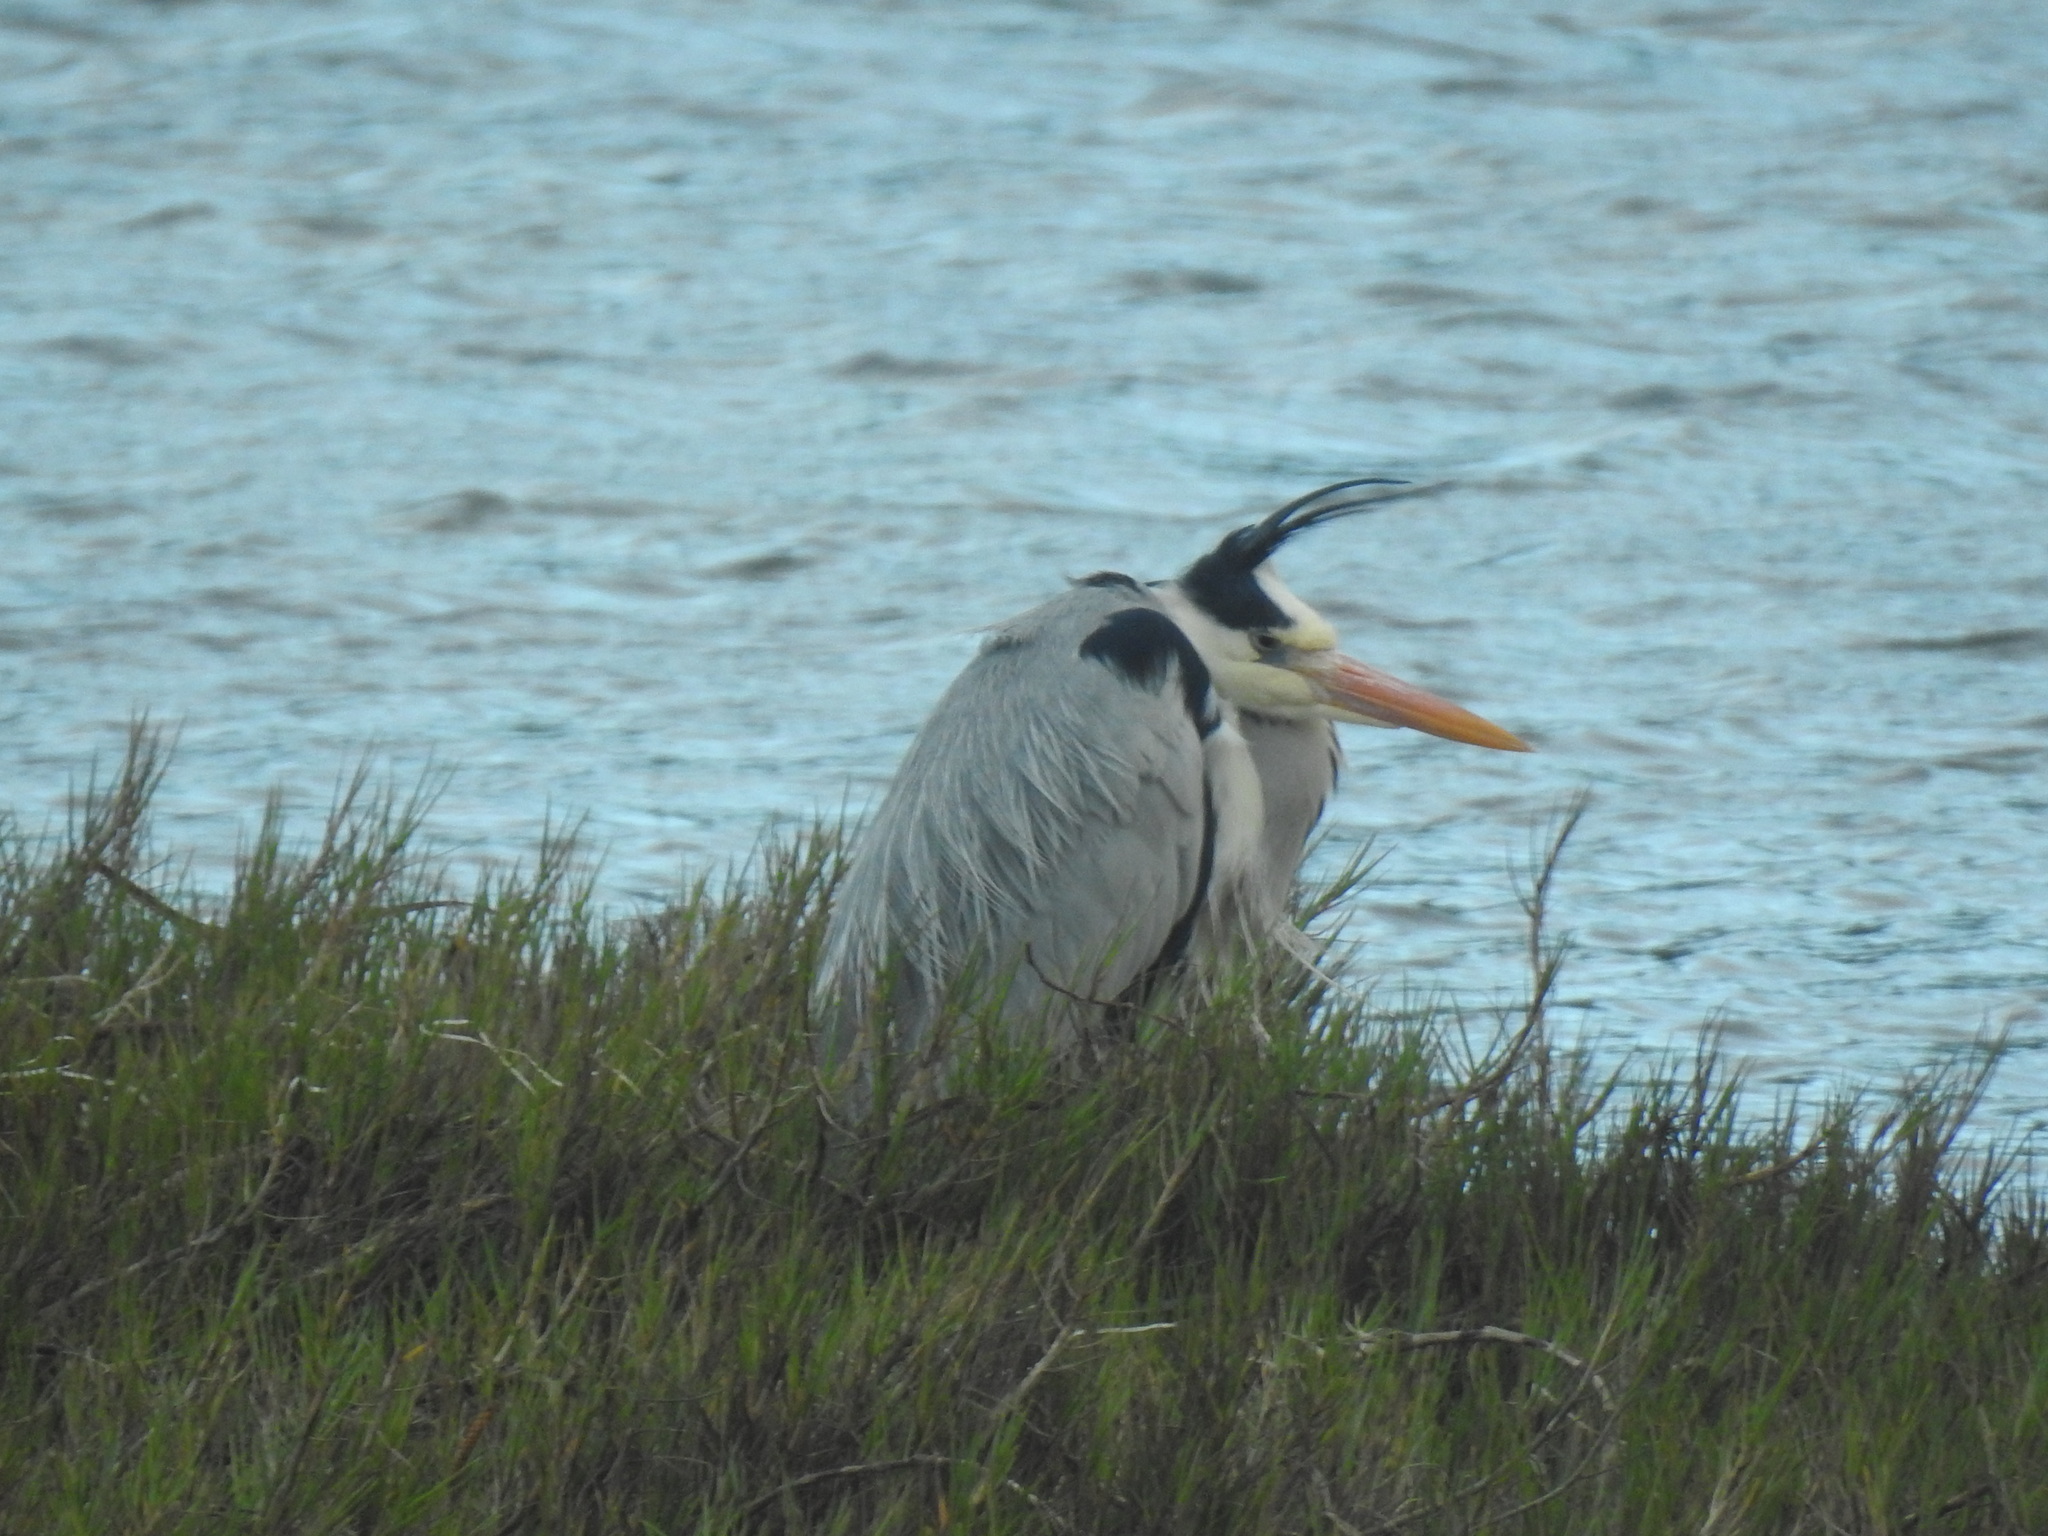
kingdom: Animalia
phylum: Chordata
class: Aves
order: Pelecaniformes
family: Ardeidae
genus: Ardea
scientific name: Ardea cinerea
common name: Grey heron
